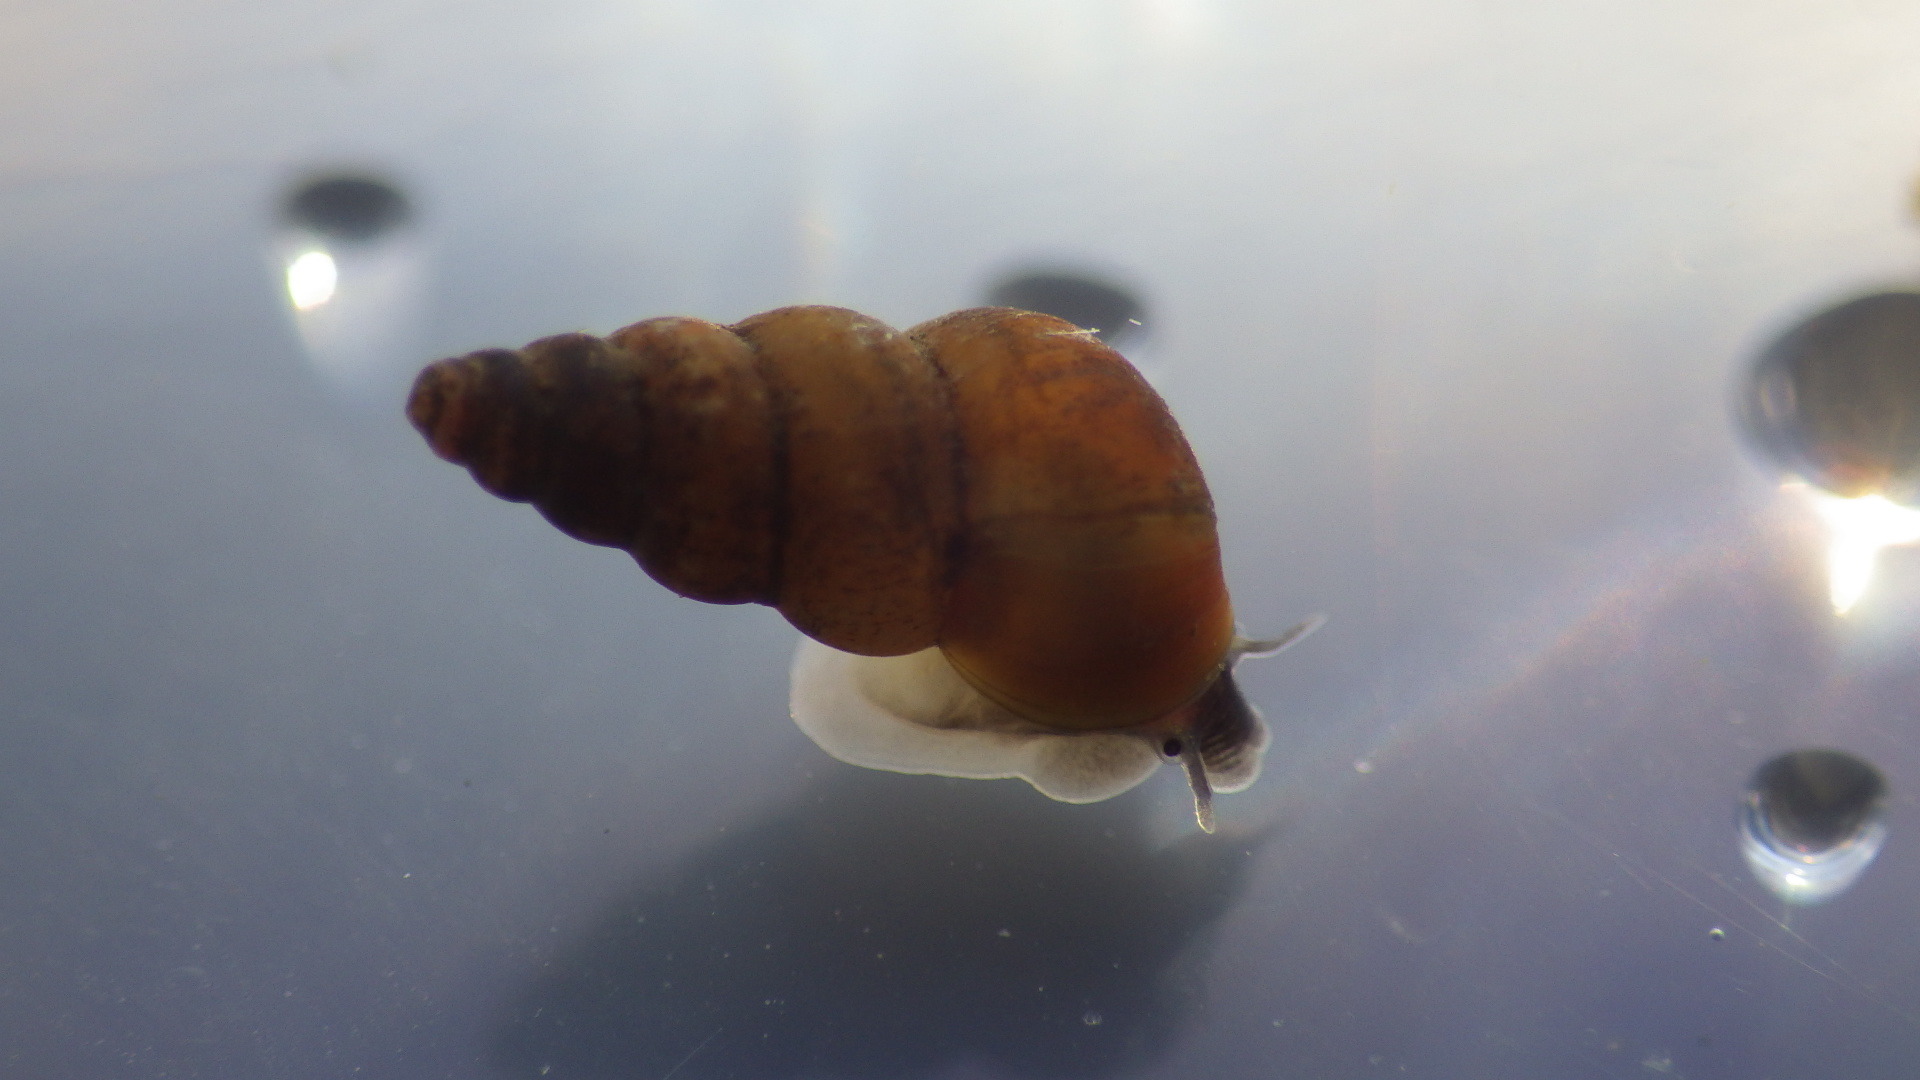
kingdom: Animalia
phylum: Mollusca
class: Gastropoda
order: Littorinimorpha
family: Pomatiopsidae
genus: Pomatiopsis
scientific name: Pomatiopsis lapidaria
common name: Slender walker
